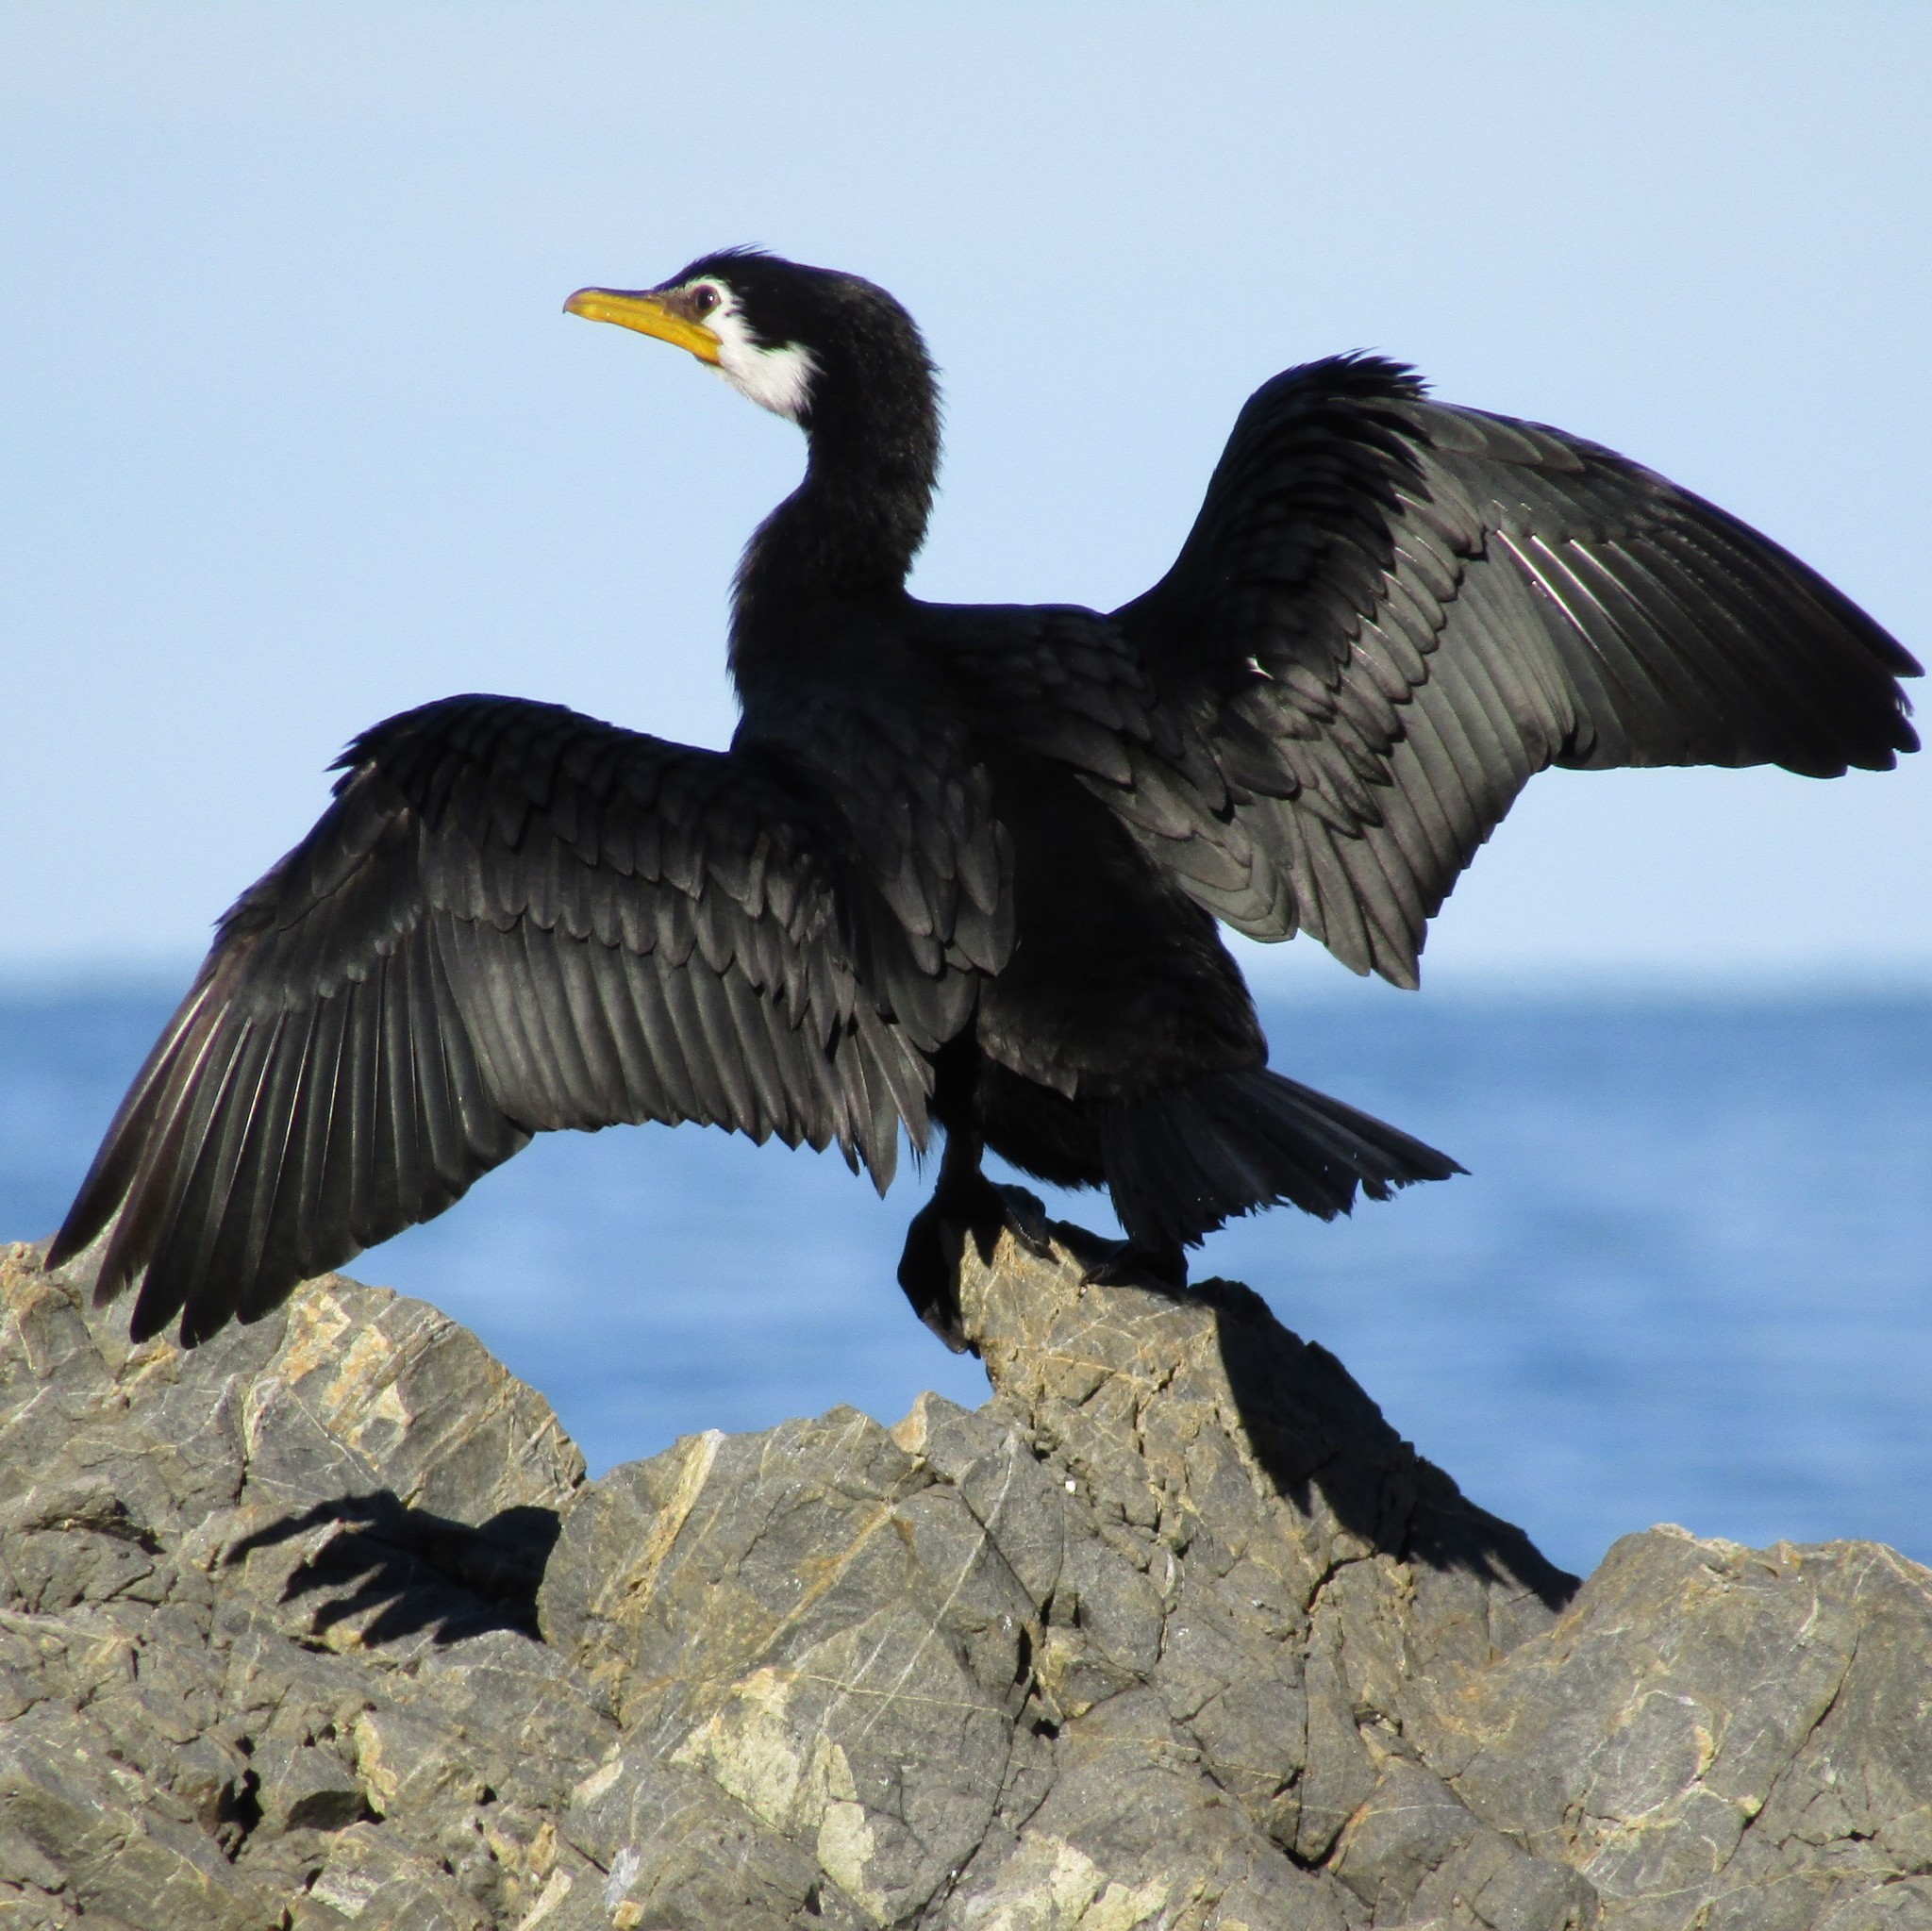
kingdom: Animalia
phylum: Chordata
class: Aves
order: Suliformes
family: Phalacrocoracidae
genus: Microcarbo
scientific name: Microcarbo melanoleucos
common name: Little pied cormorant
